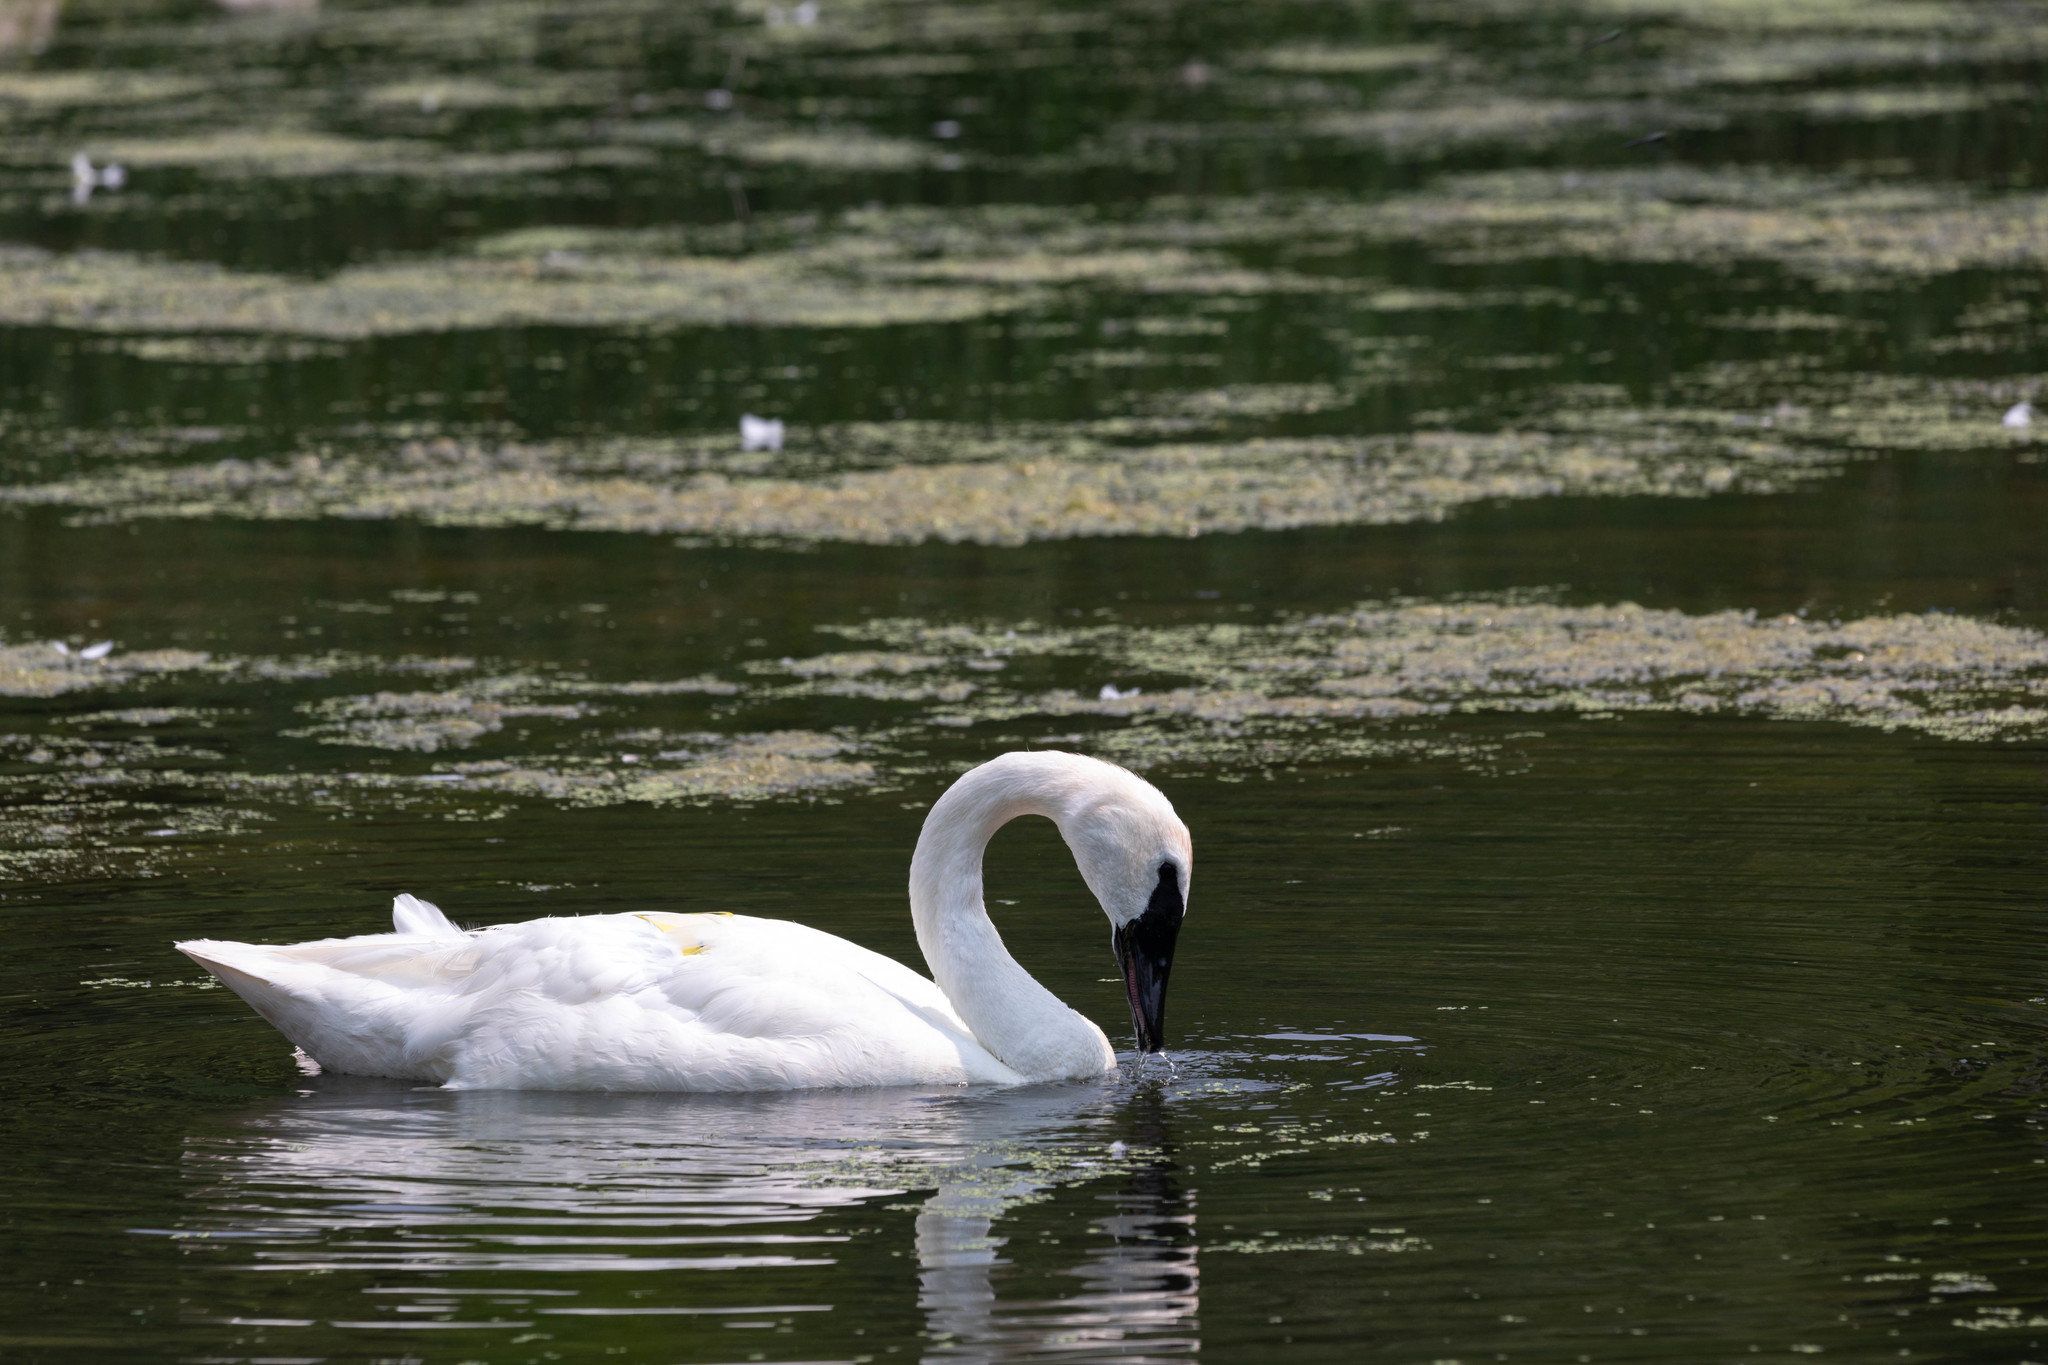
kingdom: Animalia
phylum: Chordata
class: Aves
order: Anseriformes
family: Anatidae
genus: Cygnus
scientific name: Cygnus buccinator
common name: Trumpeter swan
